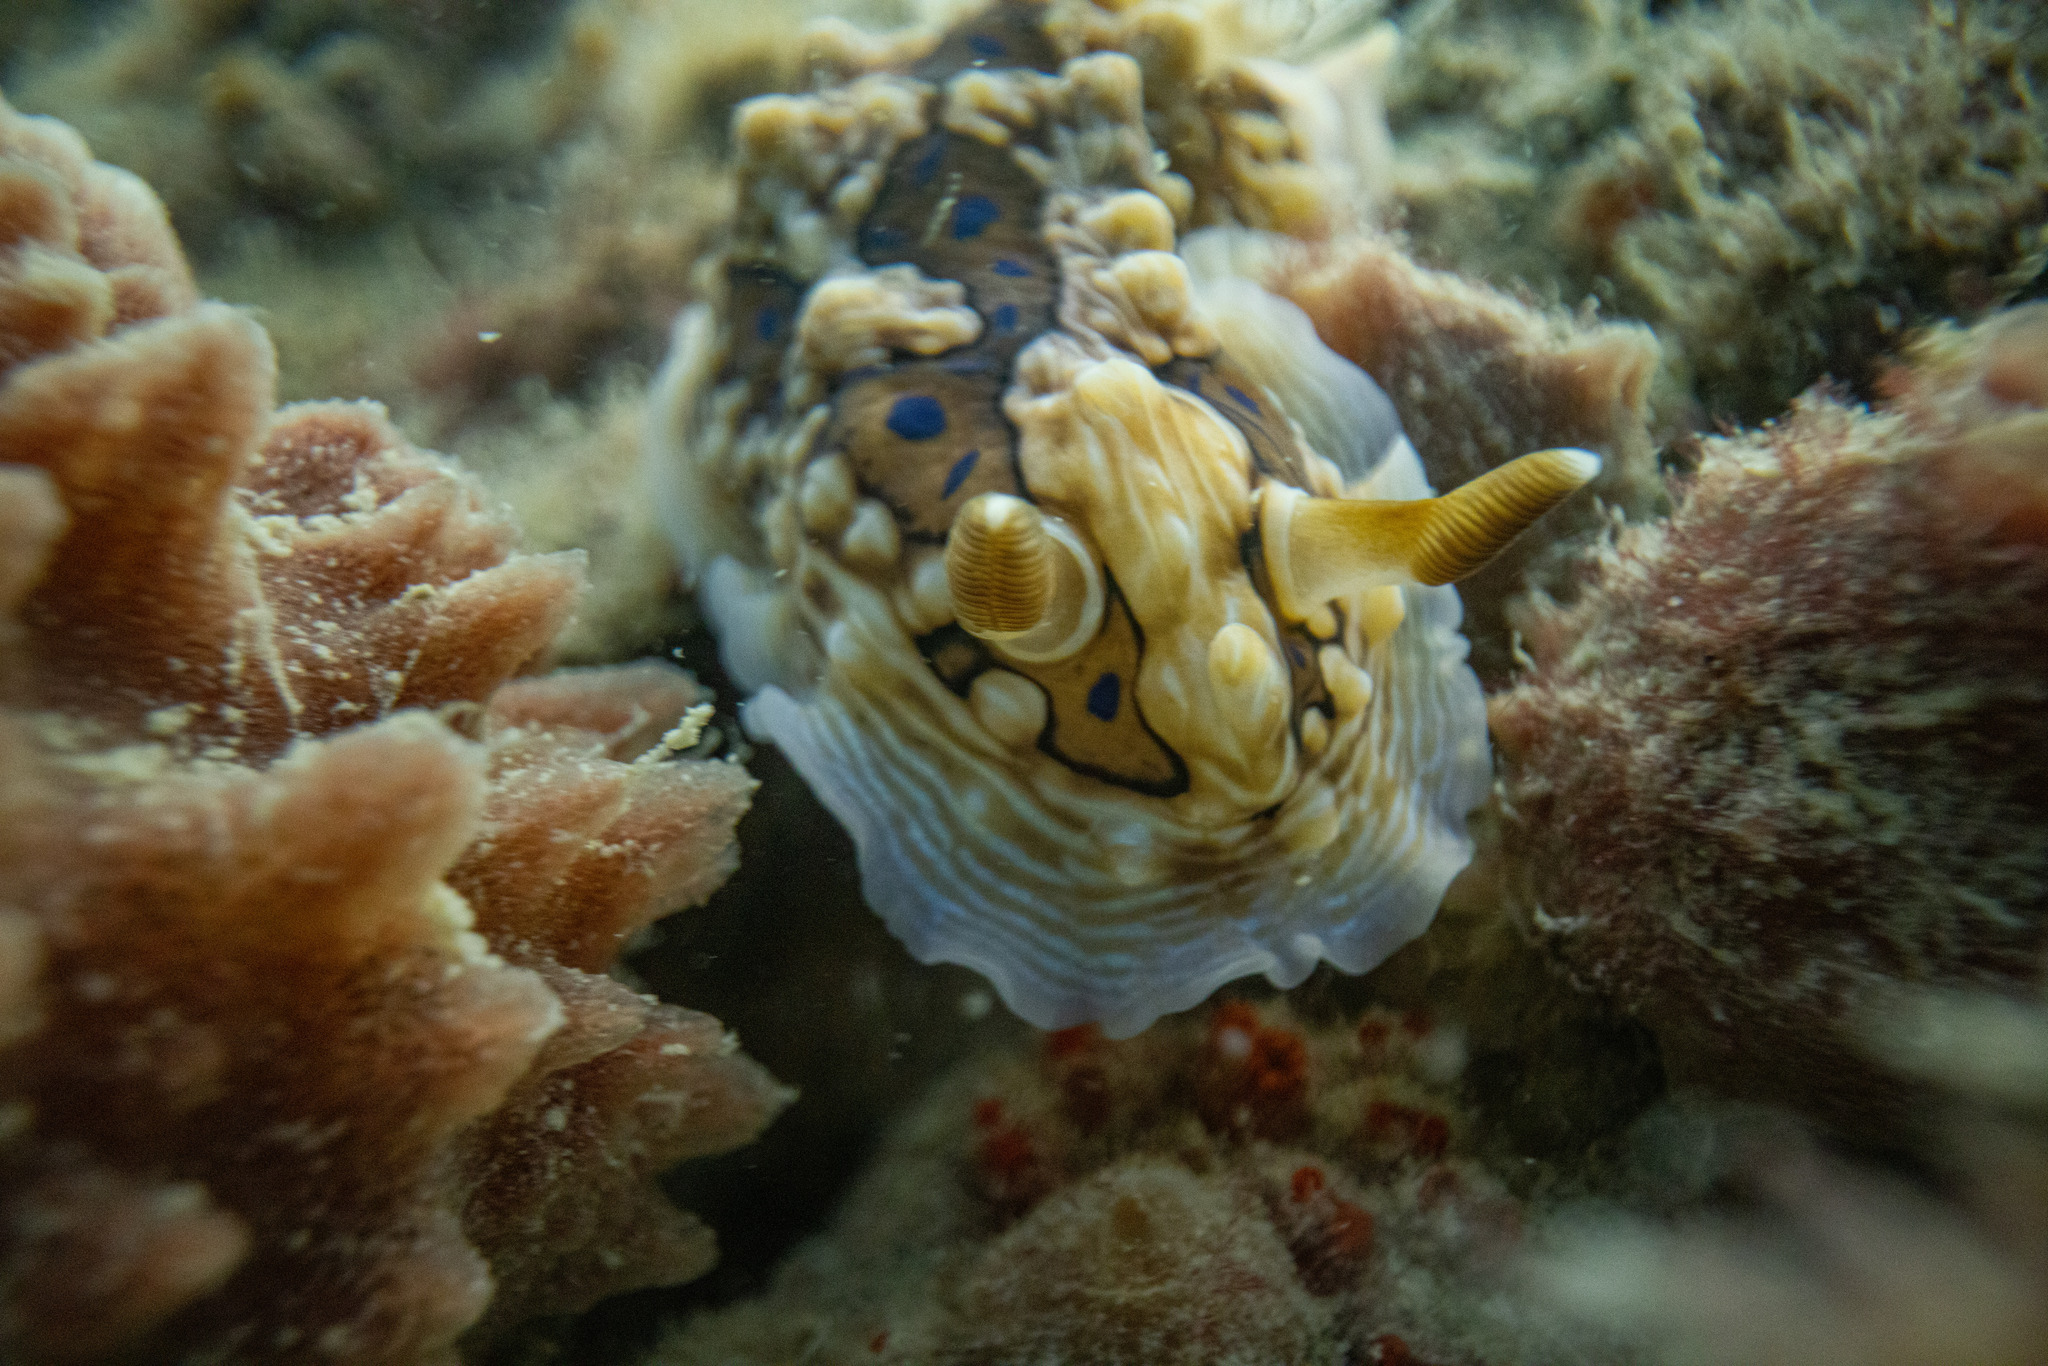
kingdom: Animalia
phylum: Mollusca
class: Gastropoda
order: Nudibranchia
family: Dendrodorididae
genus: Dendrodoris
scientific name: Dendrodoris krusensternii
